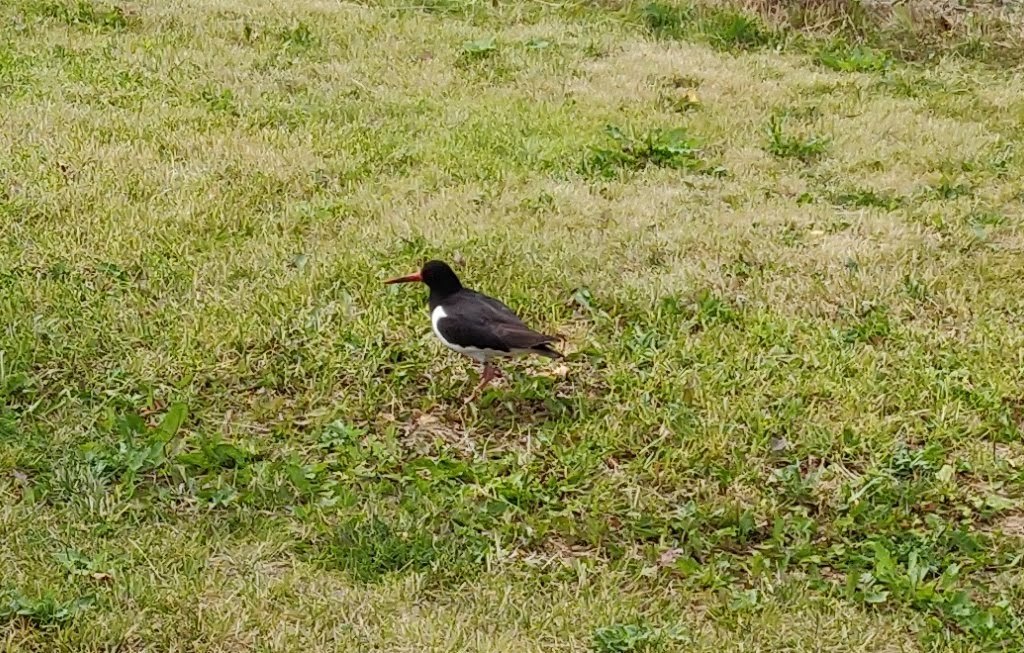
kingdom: Animalia
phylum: Chordata
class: Aves
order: Charadriiformes
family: Haematopodidae
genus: Haematopus
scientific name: Haematopus ostralegus
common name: Eurasian oystercatcher
